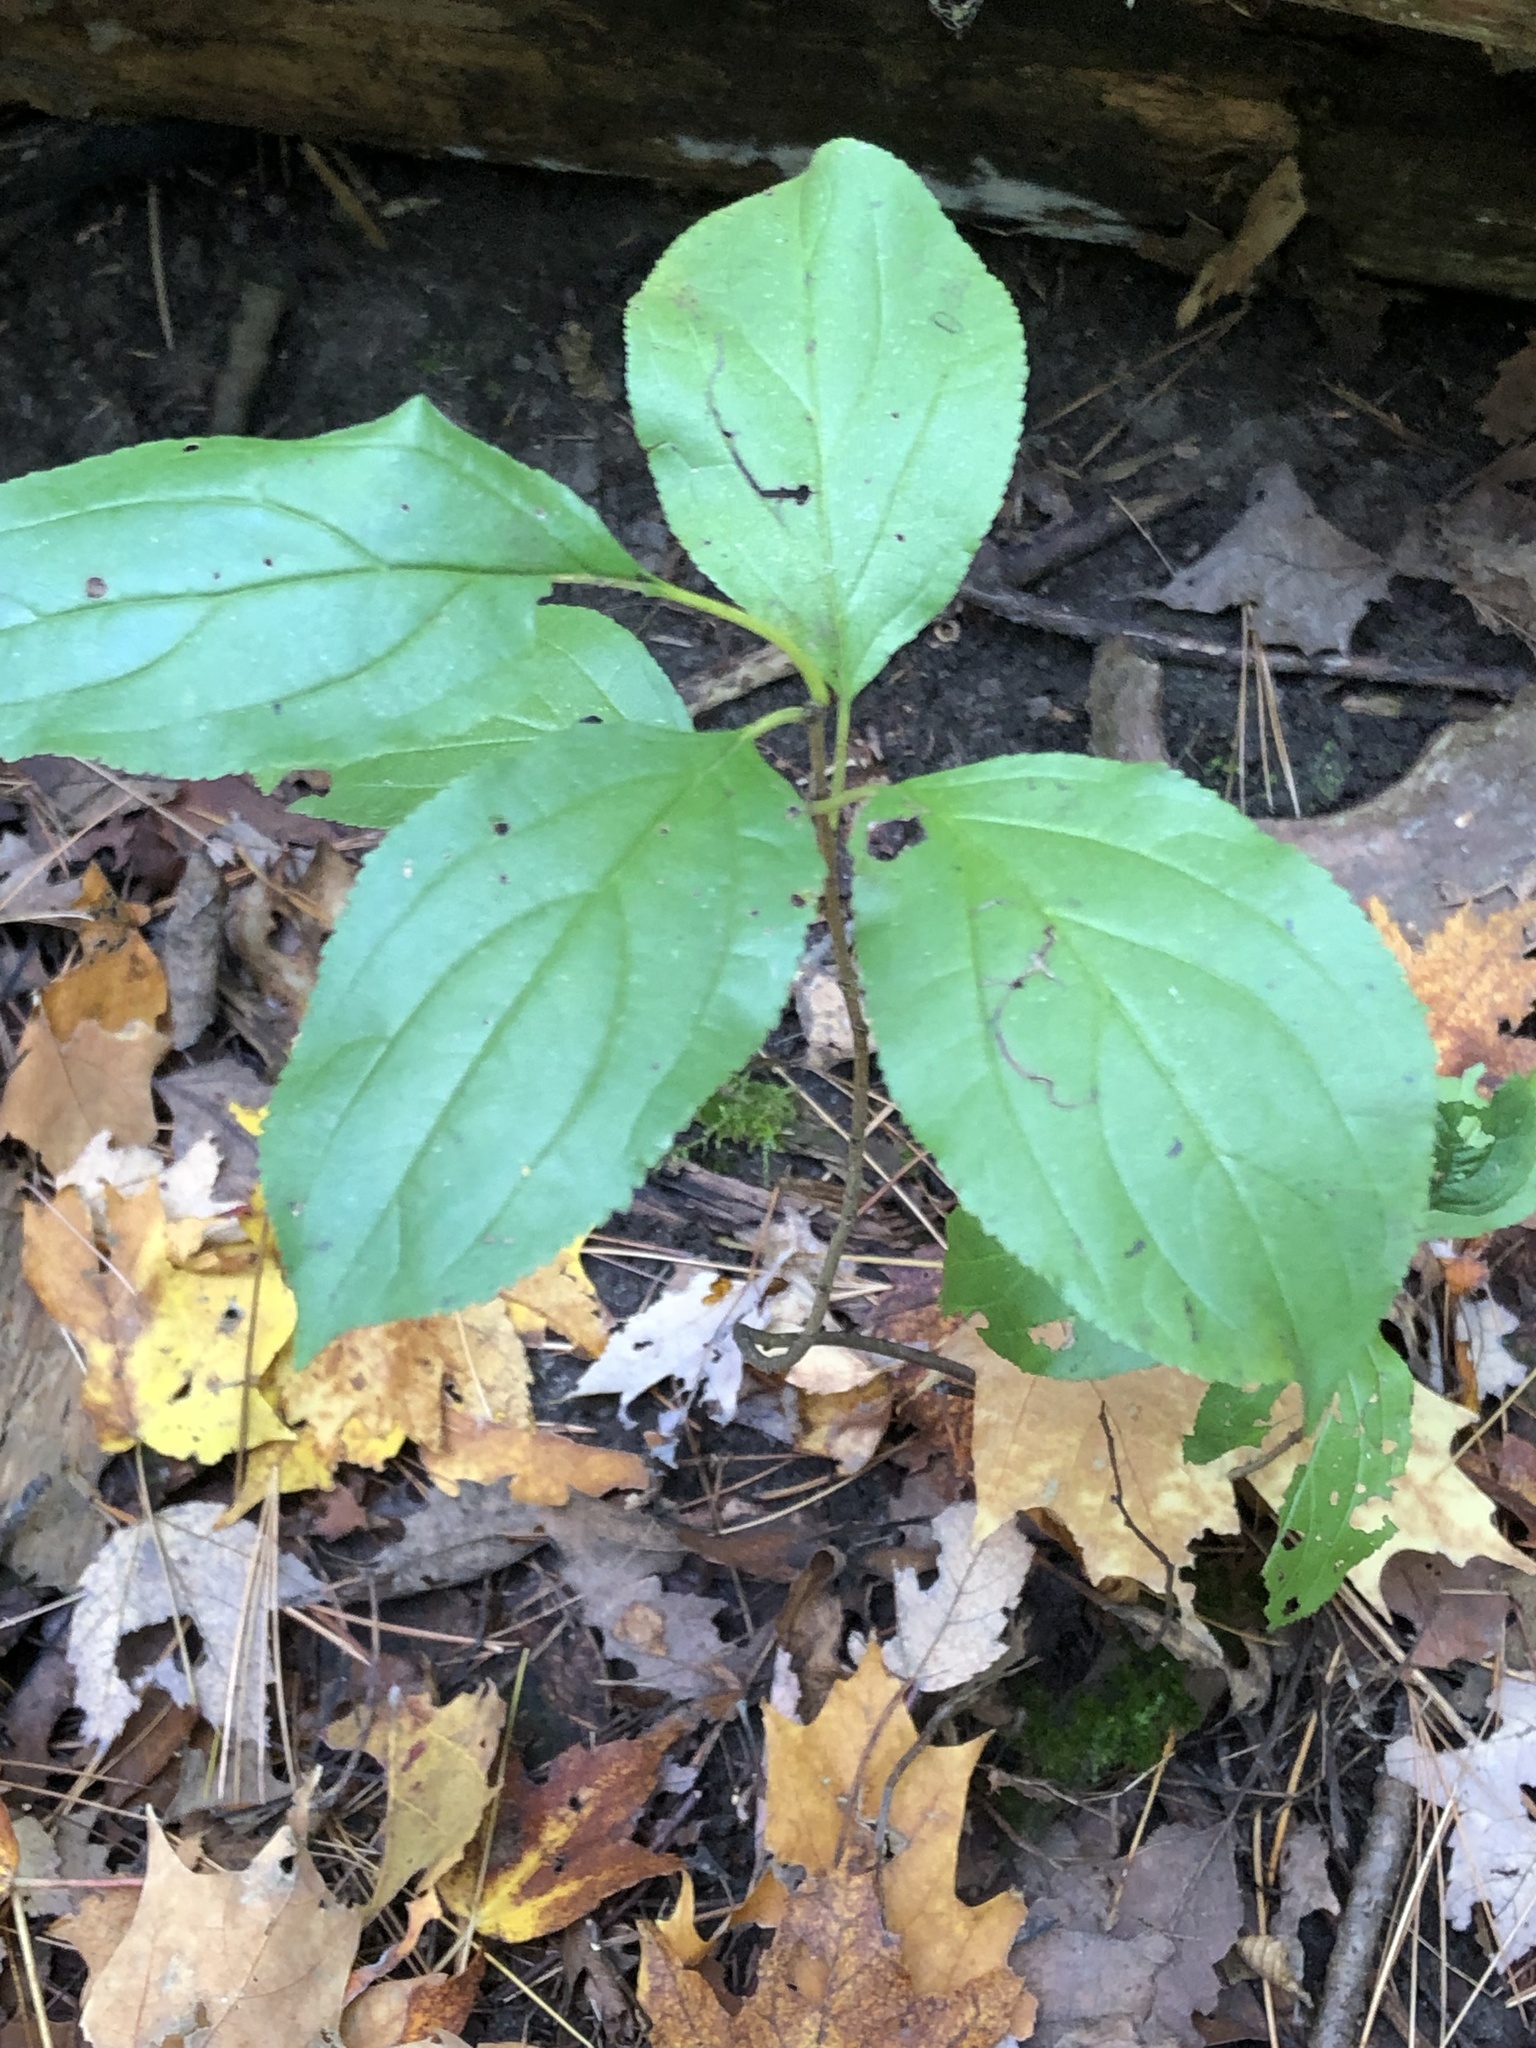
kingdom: Plantae
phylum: Tracheophyta
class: Magnoliopsida
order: Rosales
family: Rhamnaceae
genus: Rhamnus
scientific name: Rhamnus cathartica
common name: Common buckthorn
